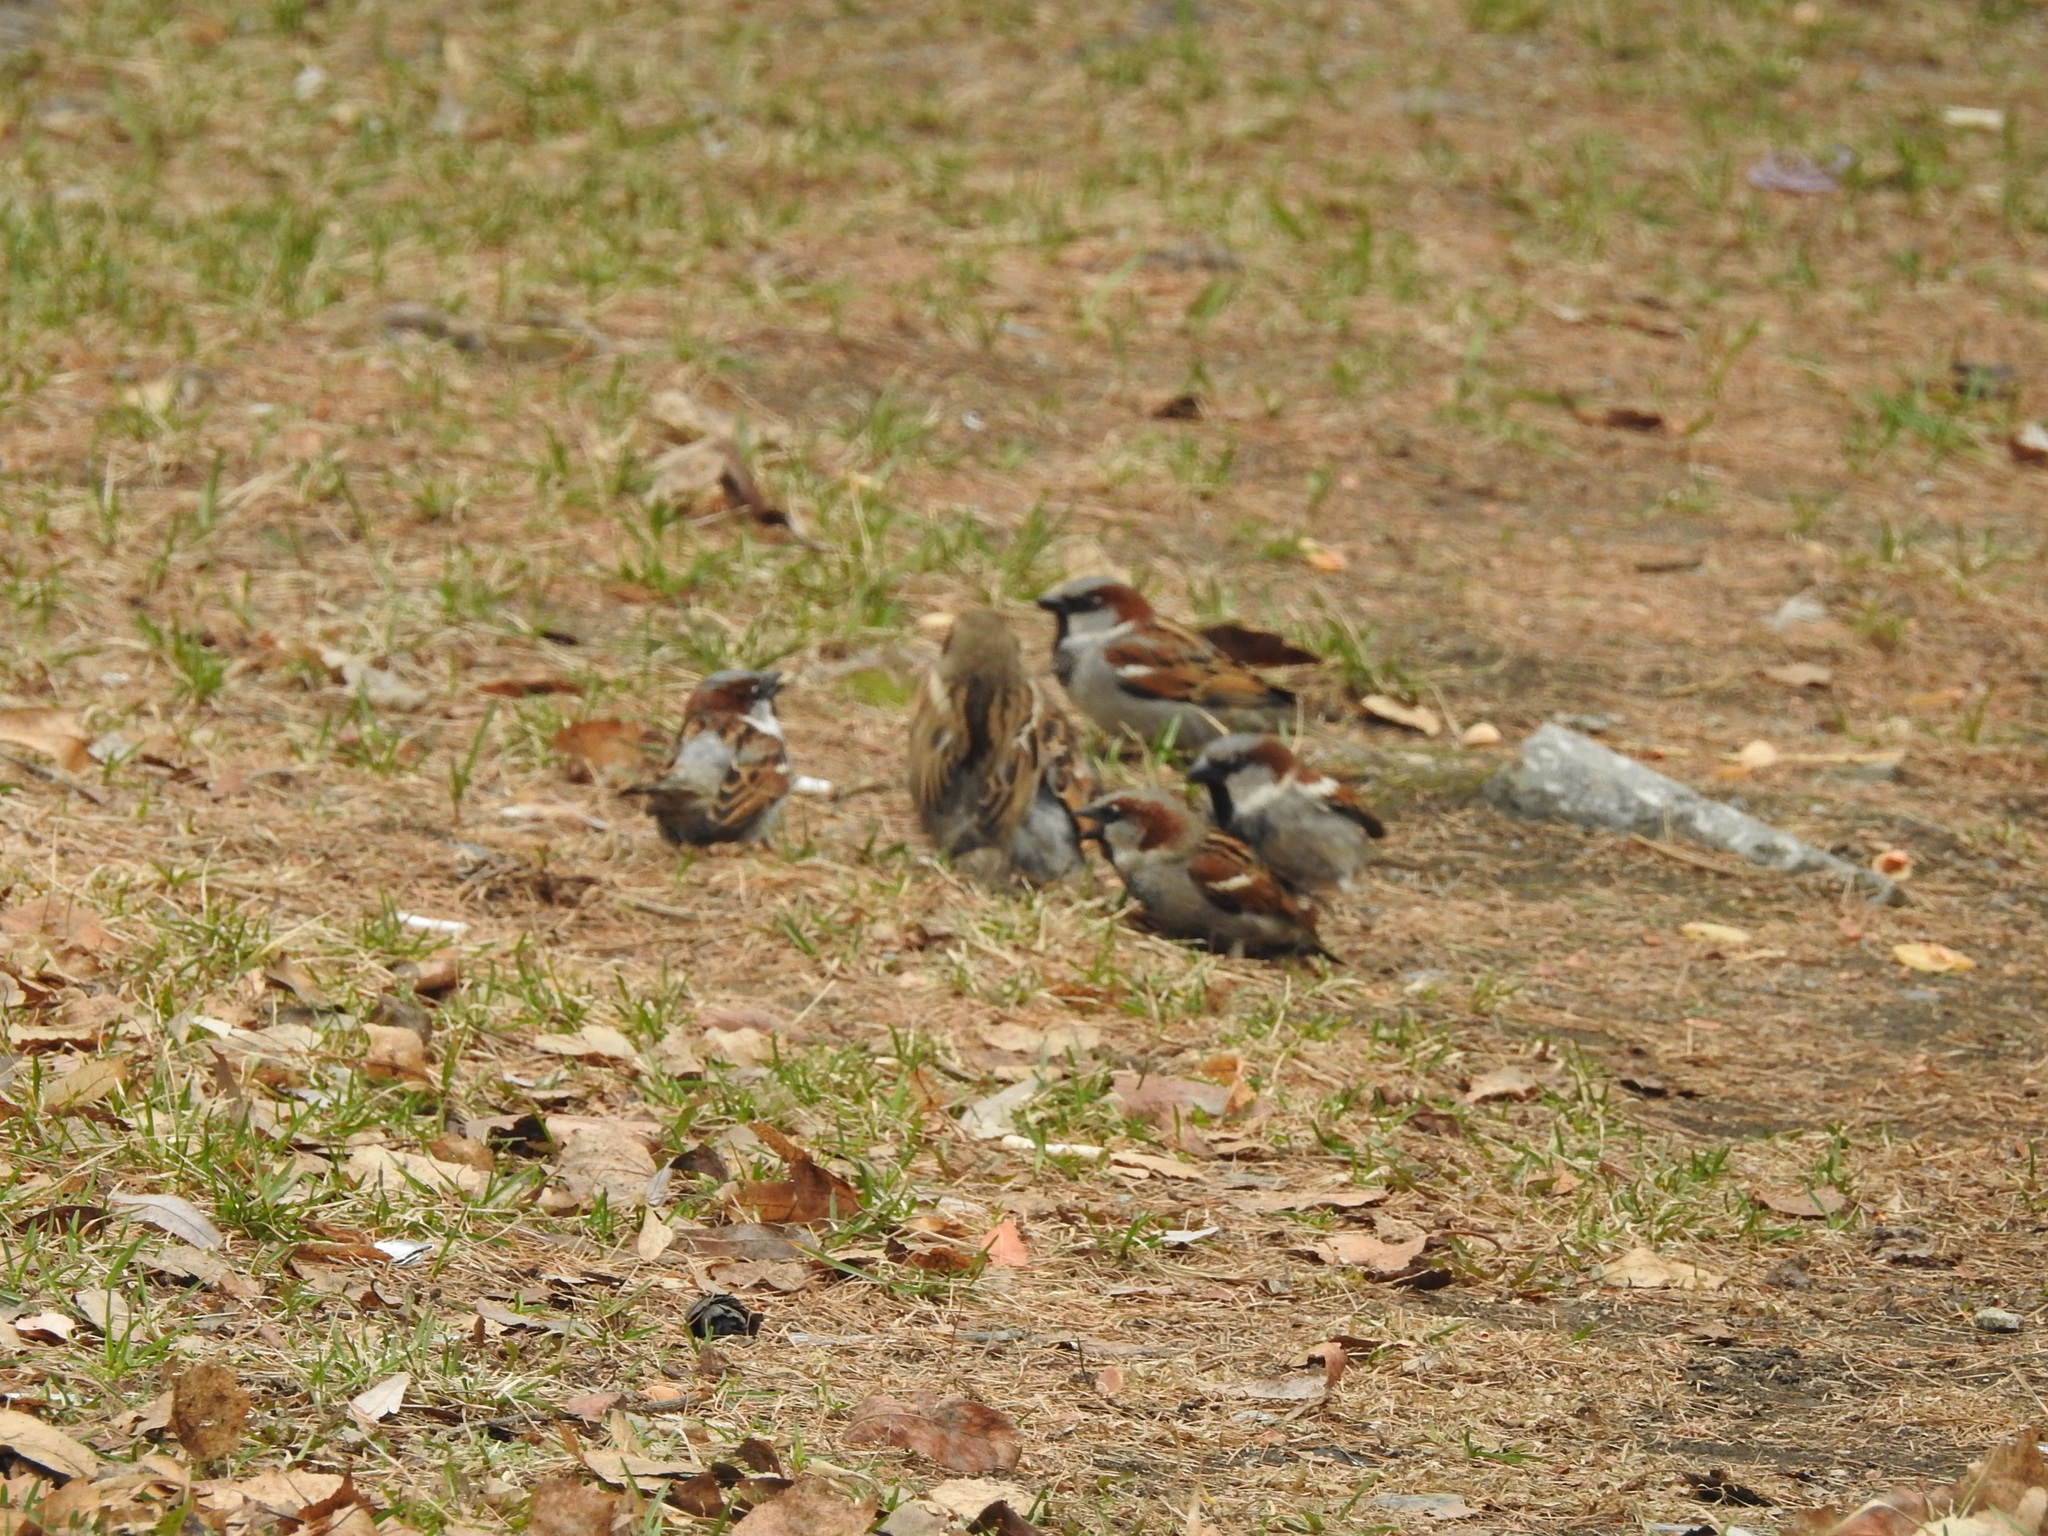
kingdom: Animalia
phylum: Chordata
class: Aves
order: Passeriformes
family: Passeridae
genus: Passer
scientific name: Passer domesticus
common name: House sparrow
